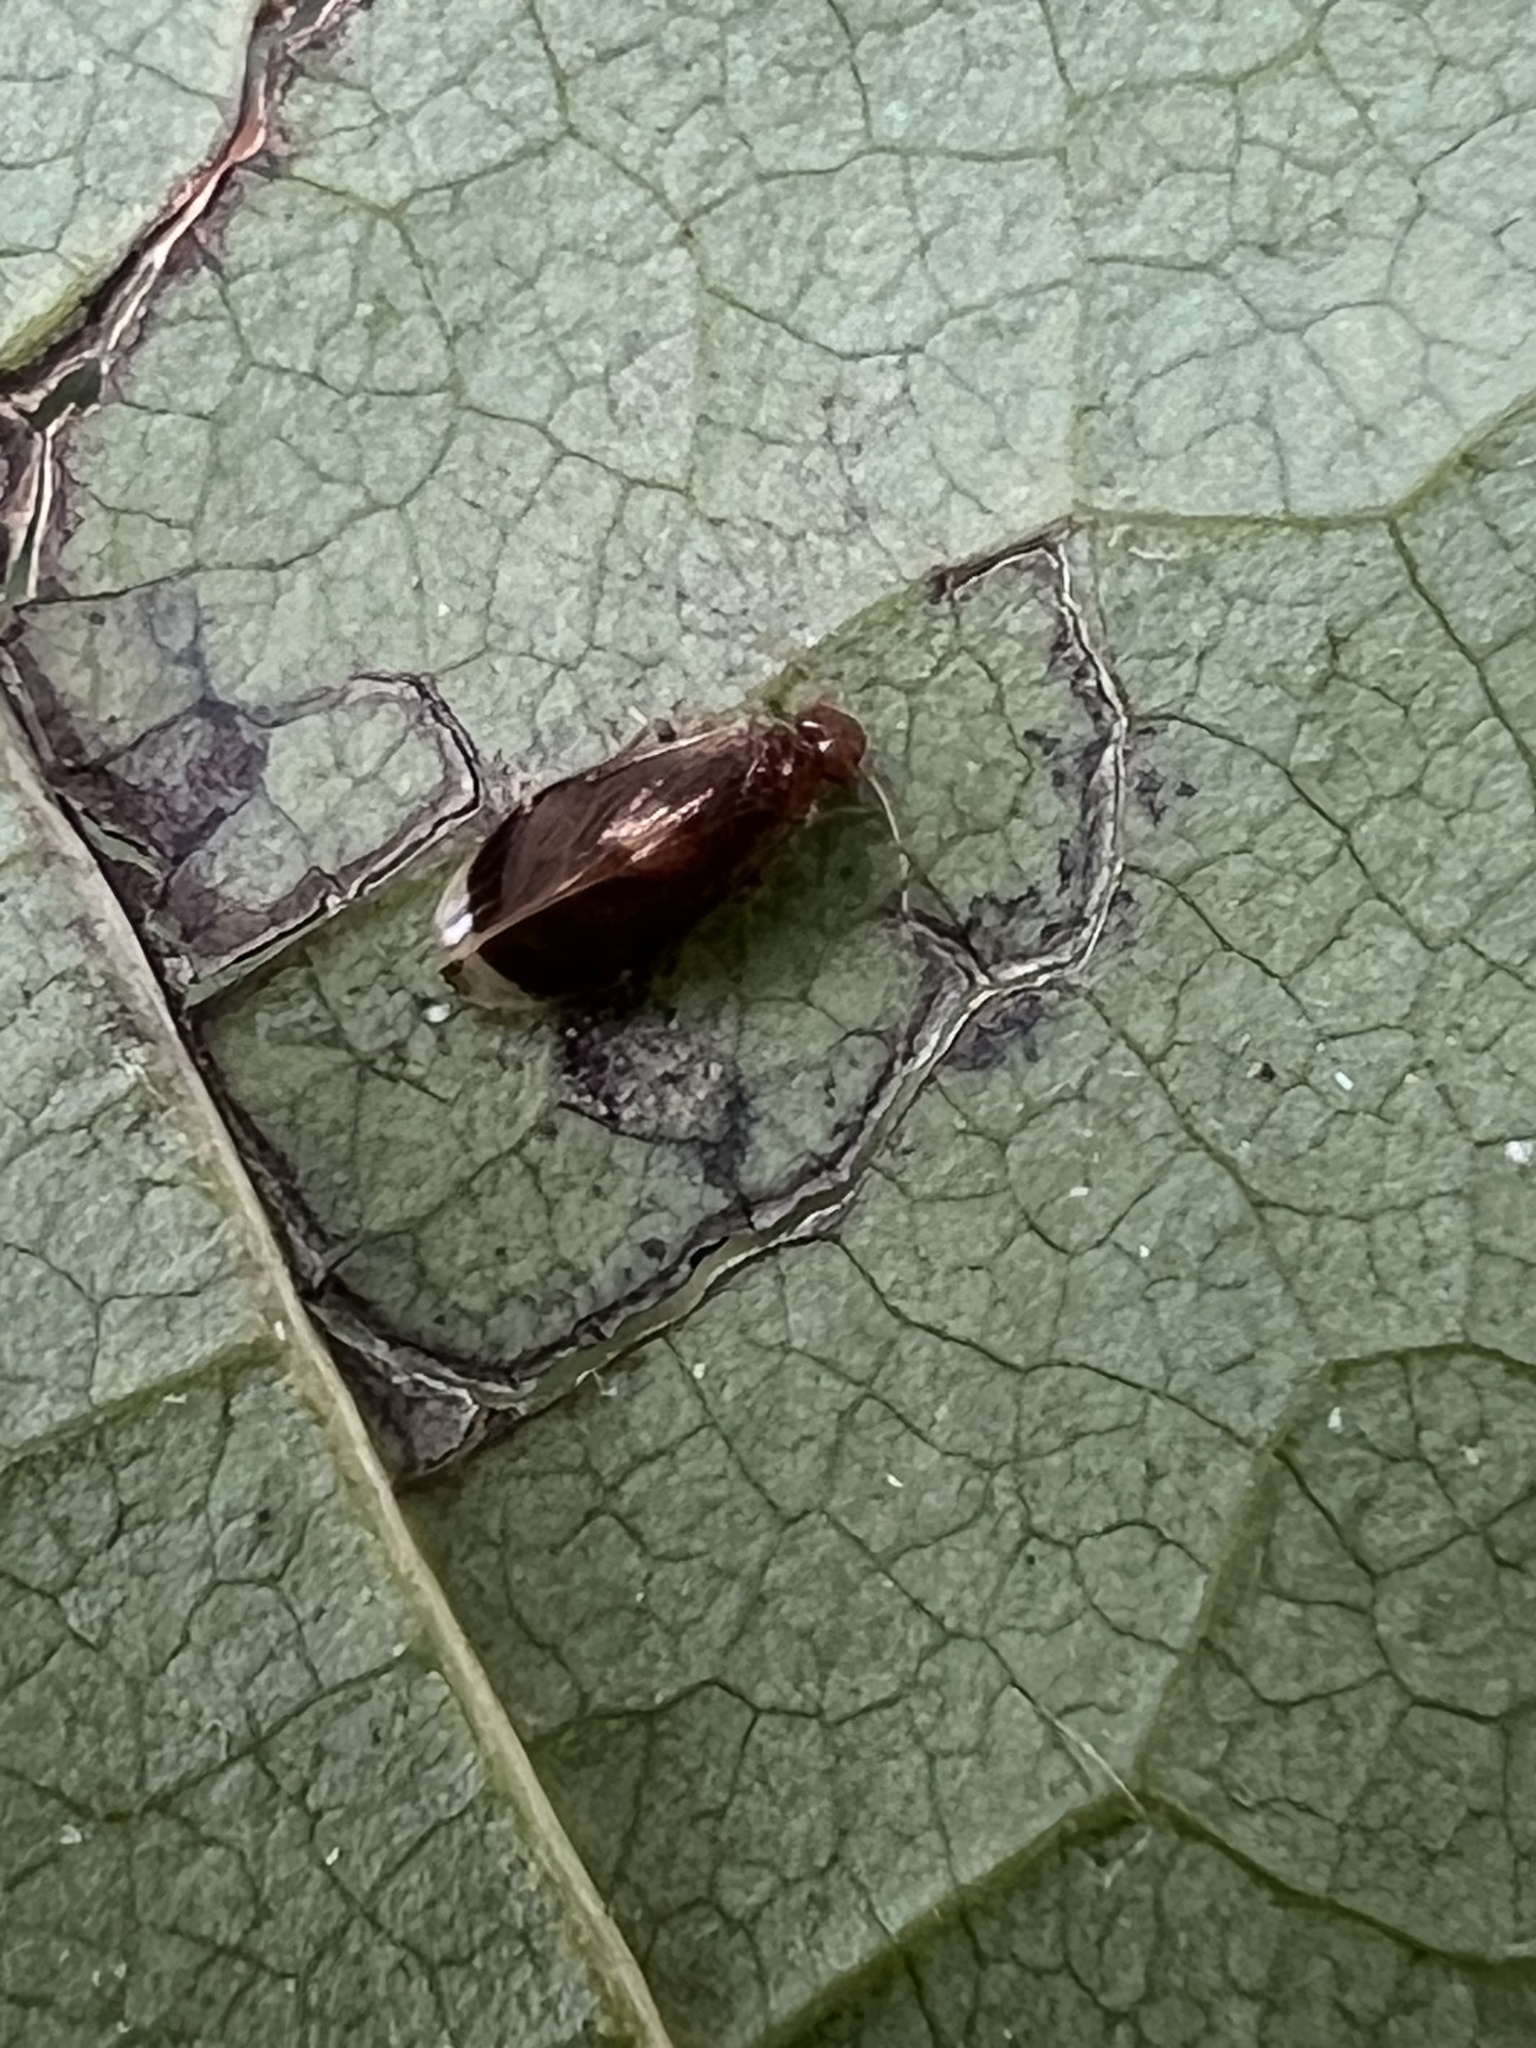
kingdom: Animalia
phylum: Arthropoda
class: Insecta
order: Psocodea
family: Amphipsocidae
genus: Polypsocus
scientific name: Polypsocus corruptus
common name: Corrupt barklouse
